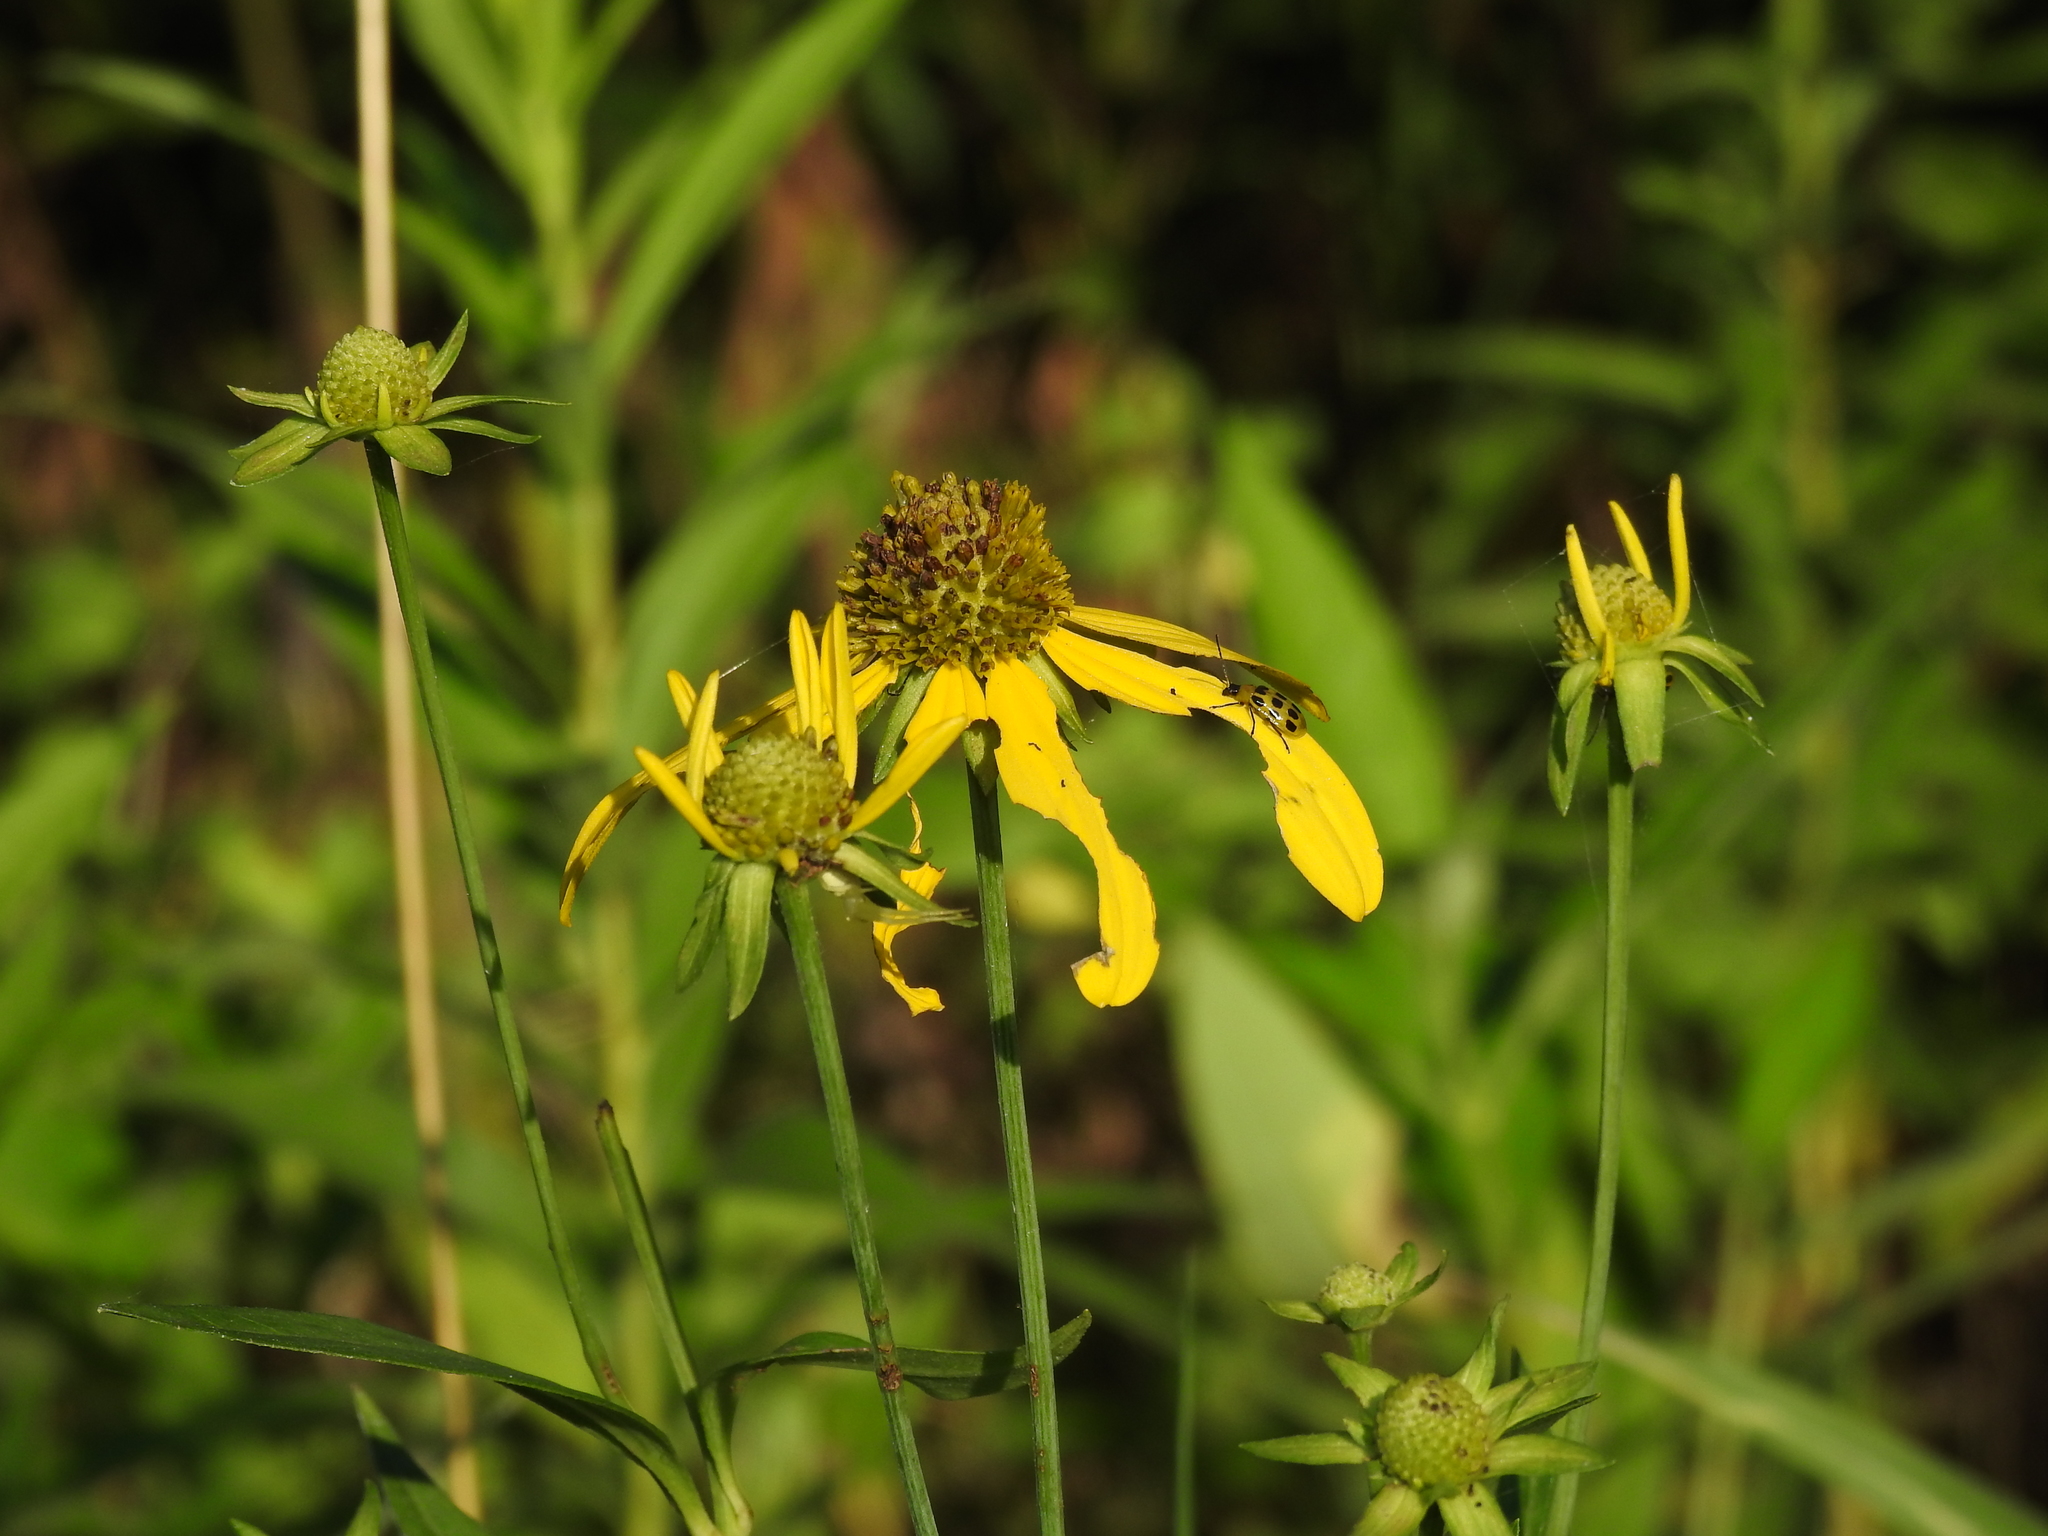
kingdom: Plantae
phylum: Tracheophyta
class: Magnoliopsida
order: Asterales
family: Asteraceae
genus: Rudbeckia
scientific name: Rudbeckia laciniata
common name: Coneflower
